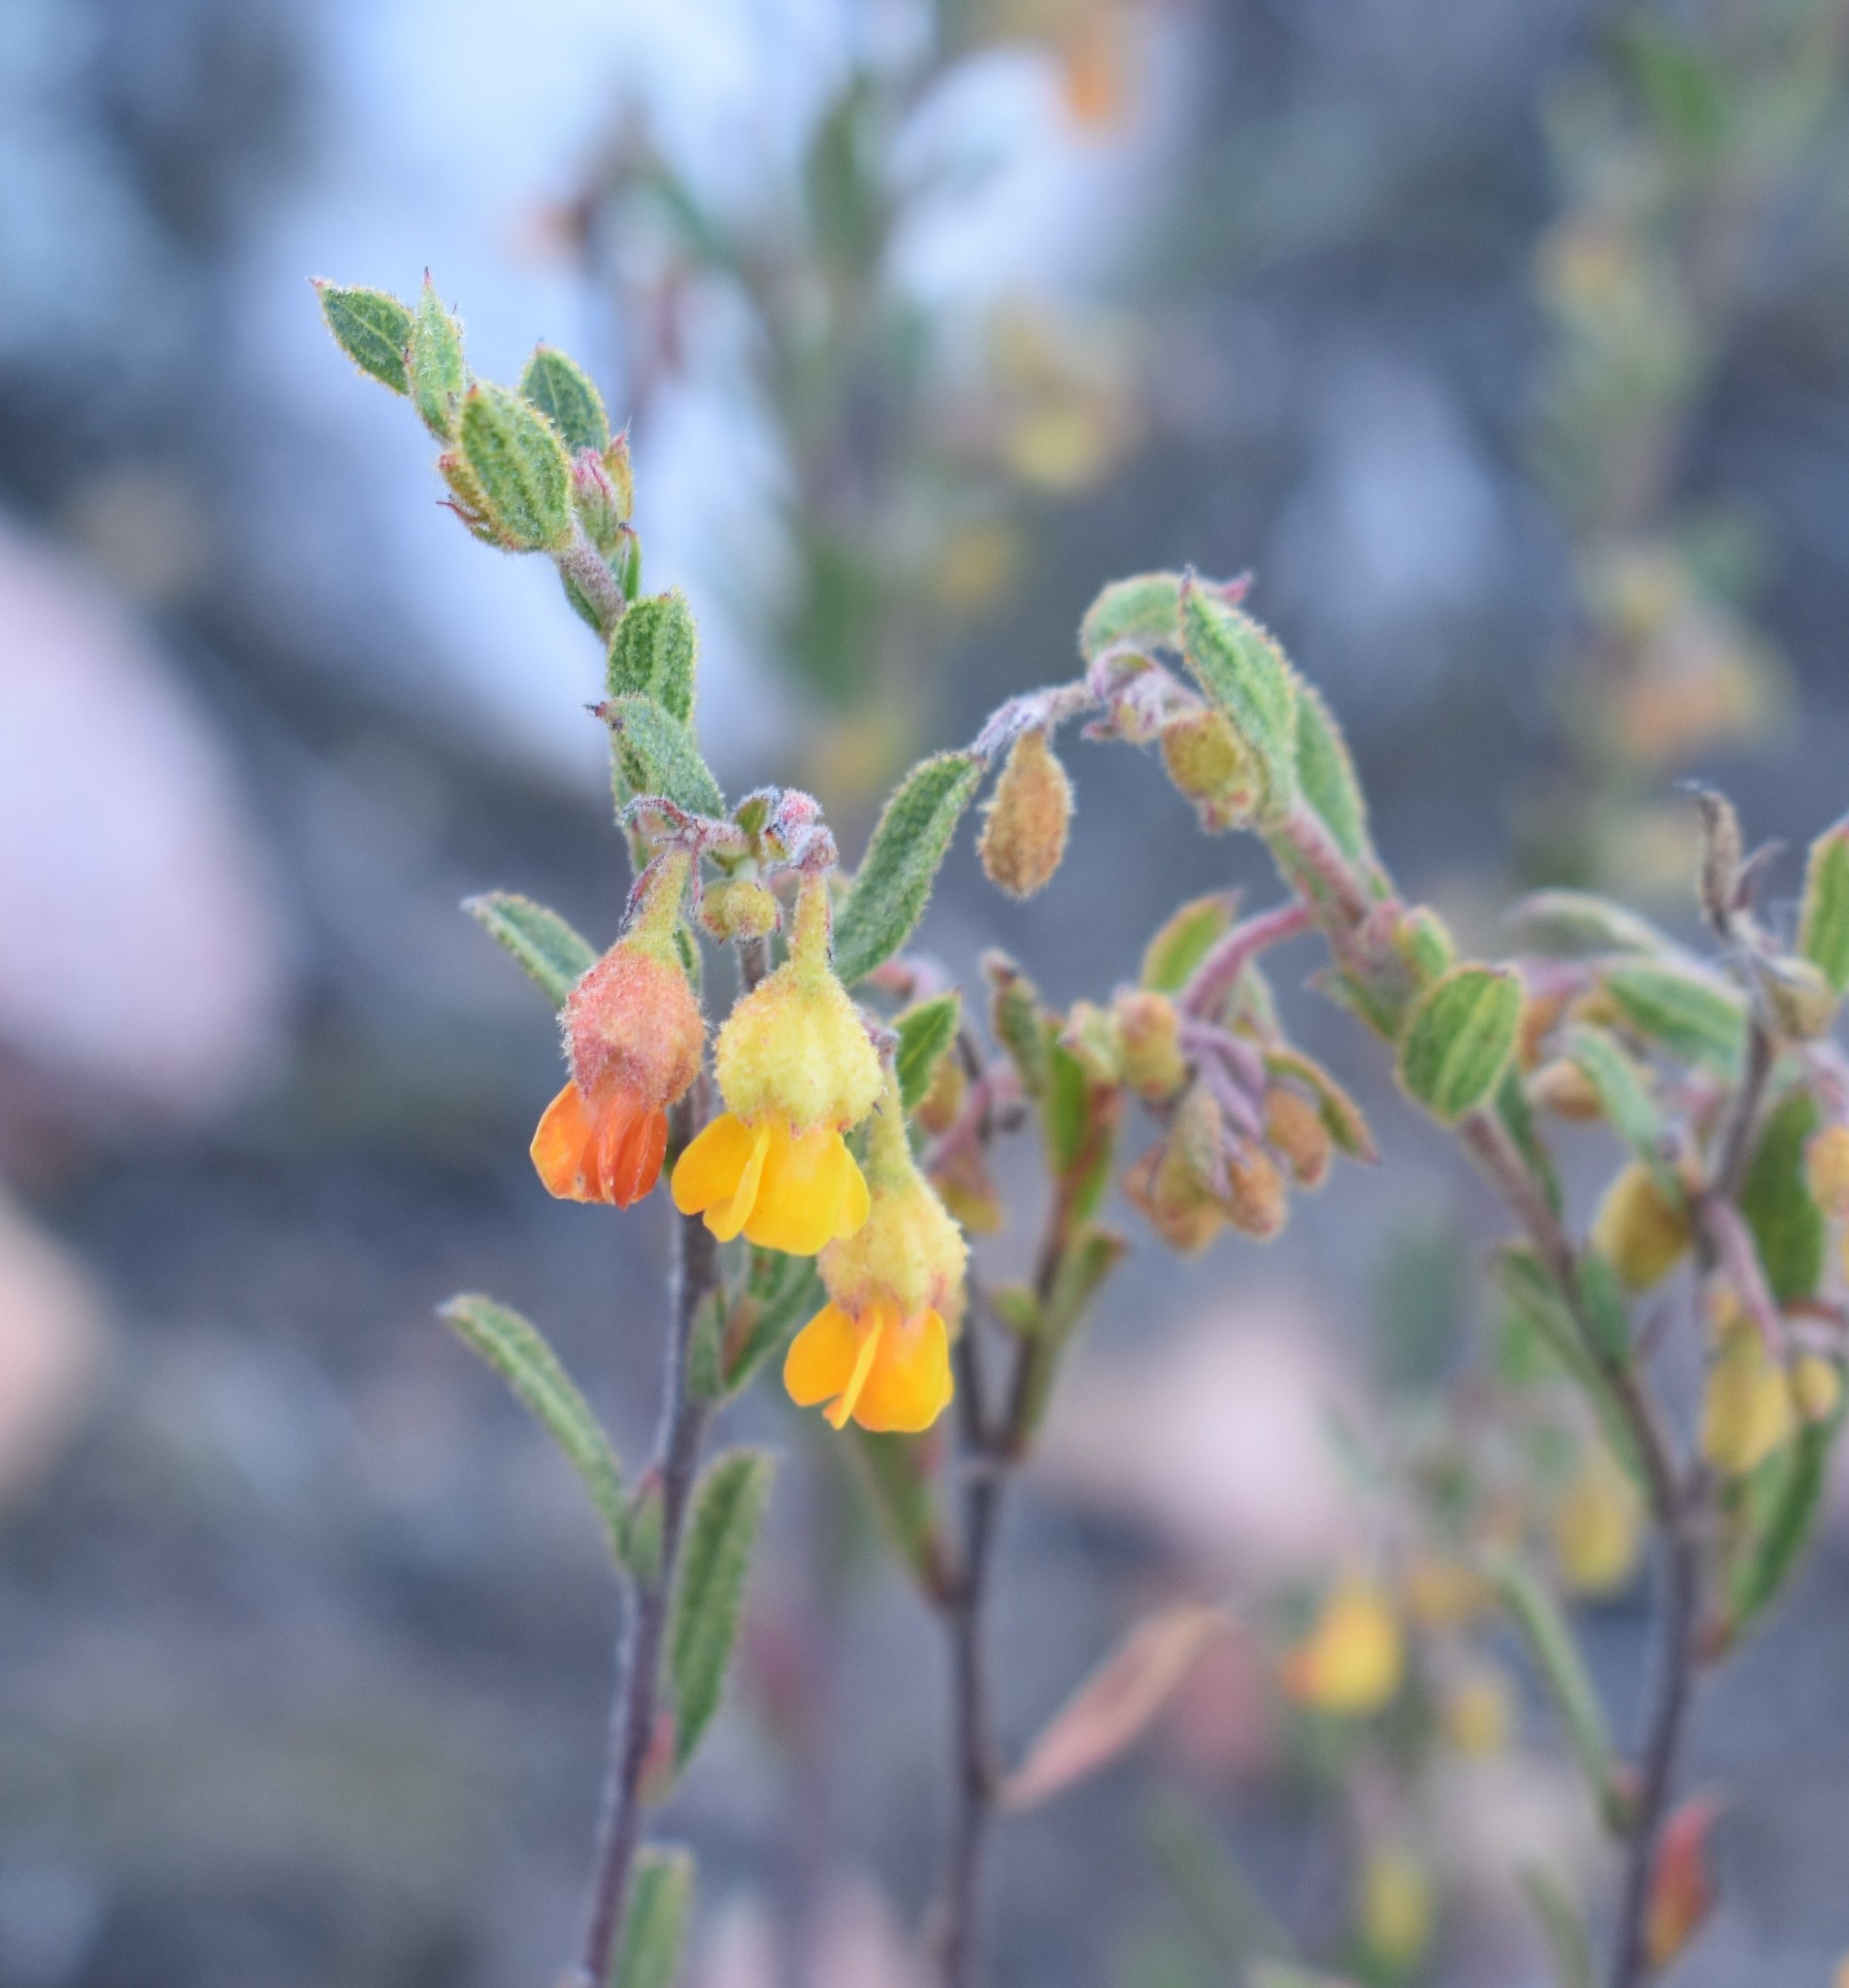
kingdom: Plantae
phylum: Tracheophyta
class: Magnoliopsida
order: Malvales
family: Malvaceae
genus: Hermannia
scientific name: Hermannia decipiens
